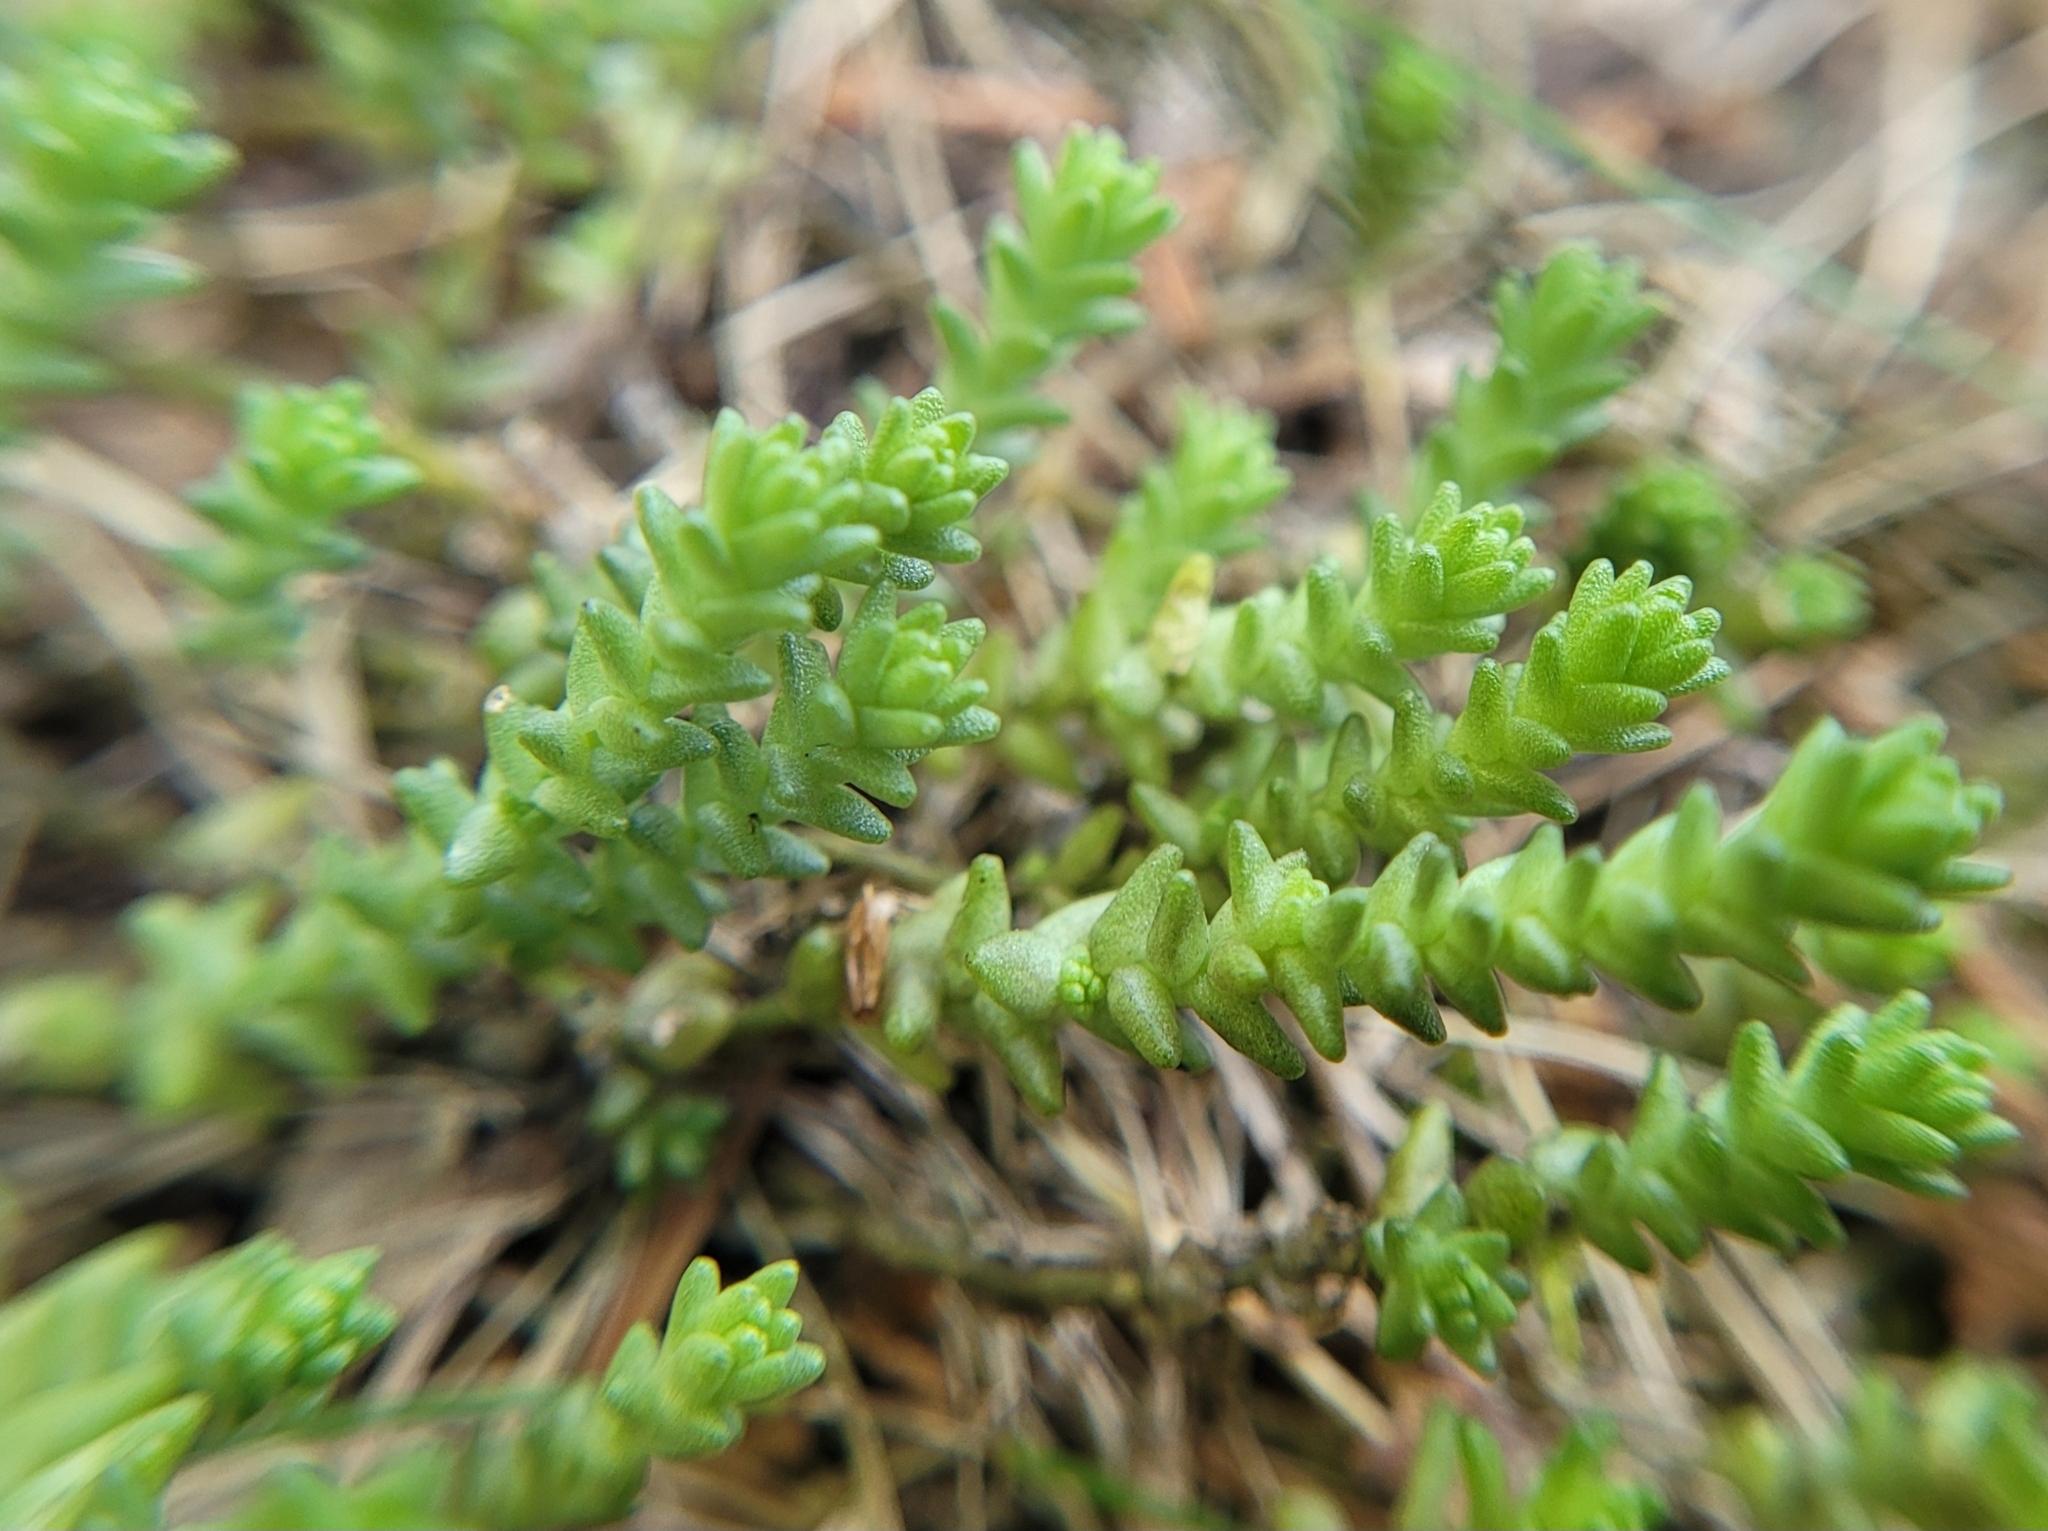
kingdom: Plantae
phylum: Tracheophyta
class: Magnoliopsida
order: Saxifragales
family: Crassulaceae
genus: Sedum
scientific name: Sedum acre
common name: Biting stonecrop
